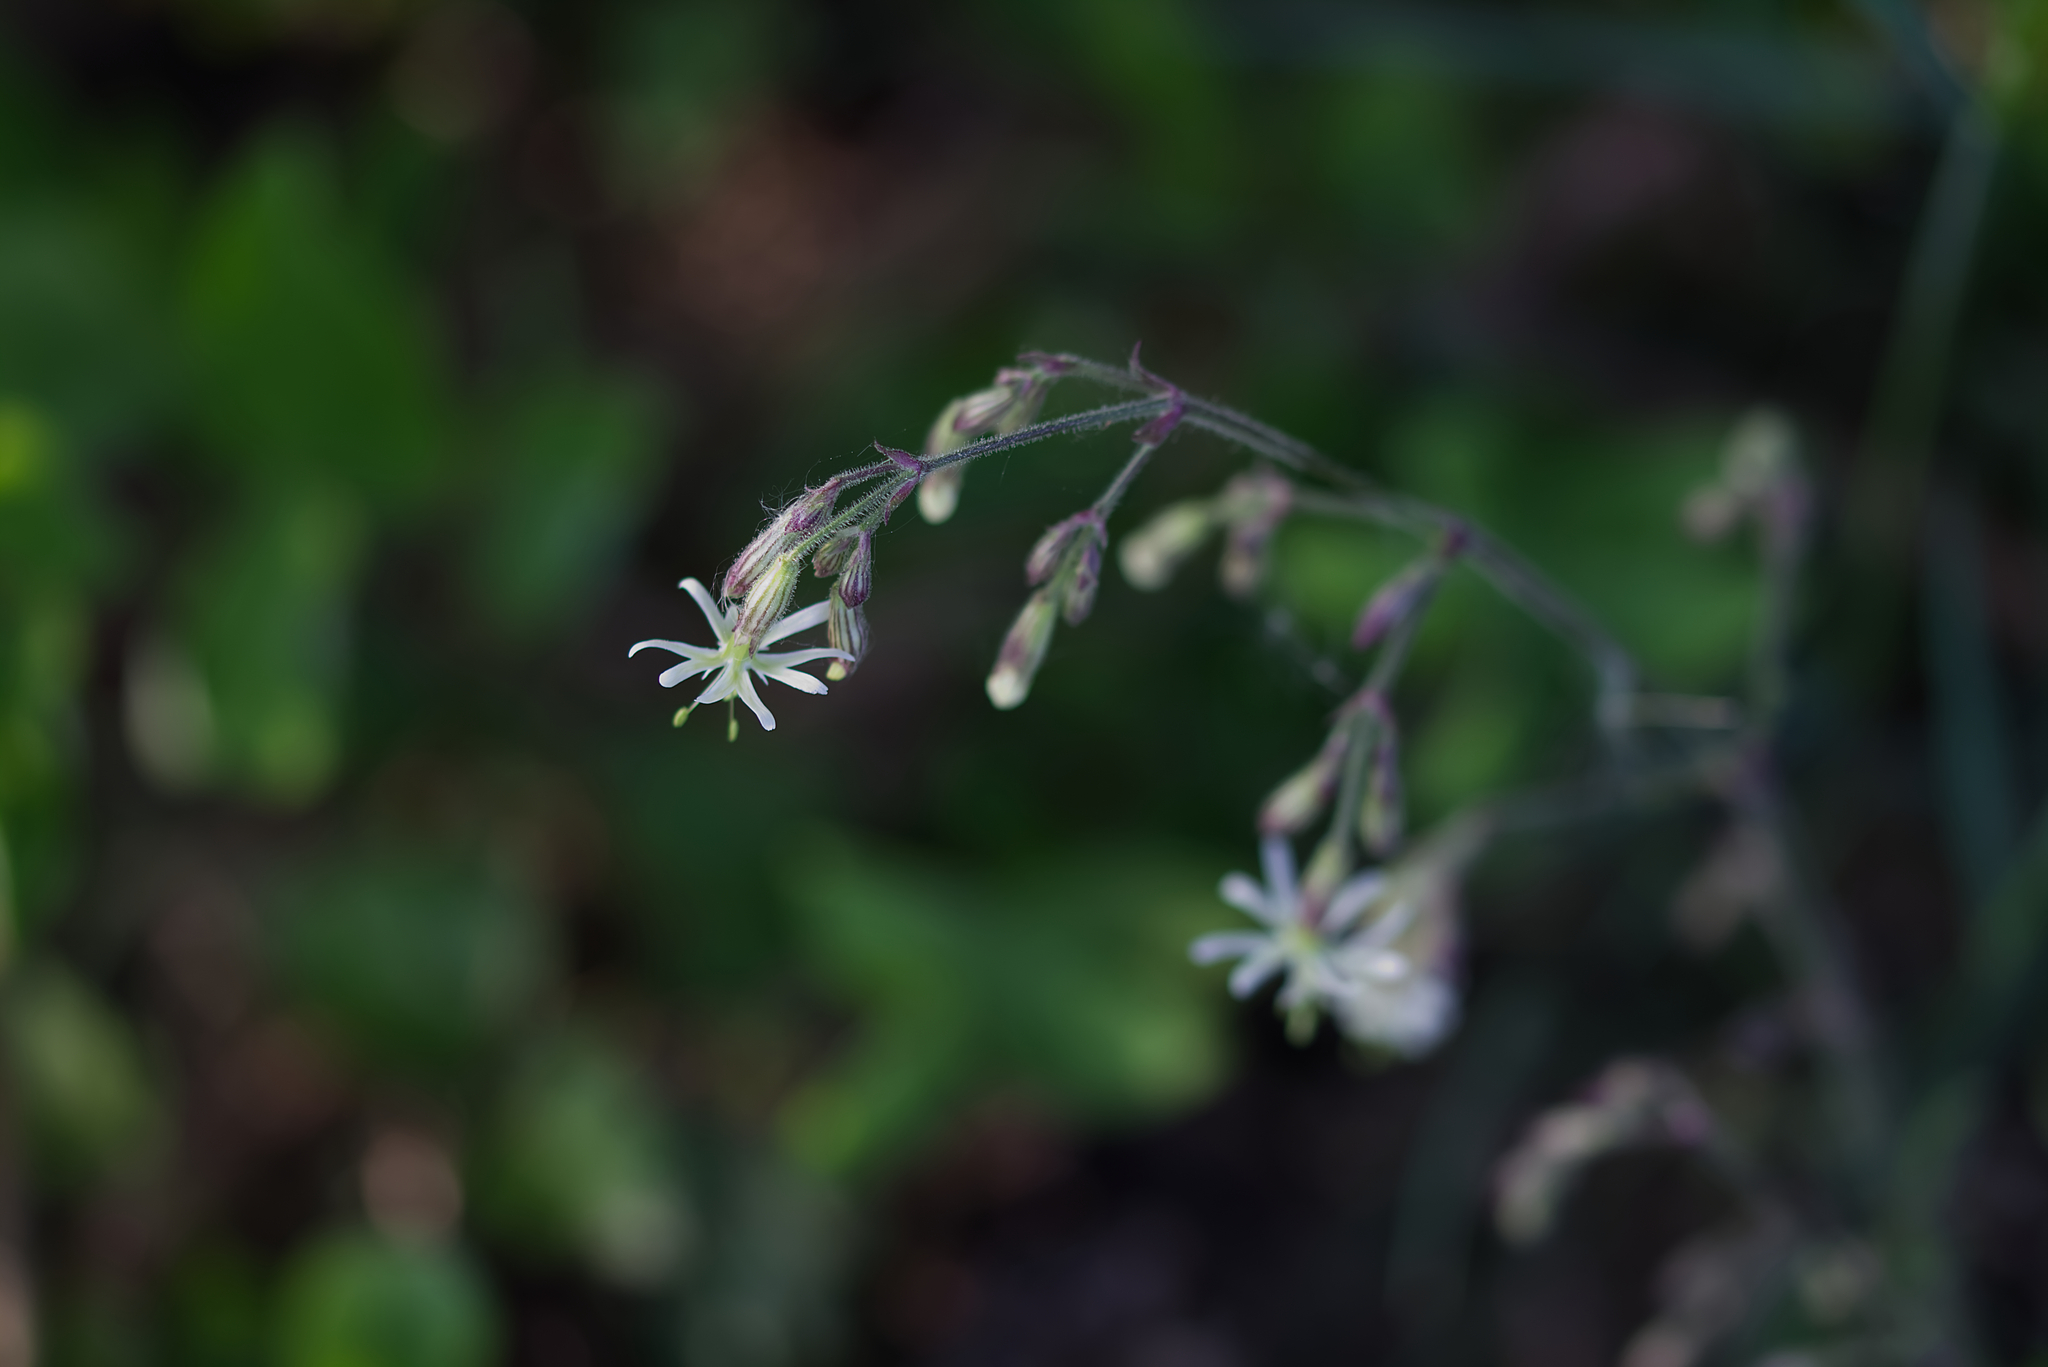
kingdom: Plantae
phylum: Tracheophyta
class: Magnoliopsida
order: Caryophyllales
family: Caryophyllaceae
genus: Silene
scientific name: Silene nutans
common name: Nottingham catchfly
